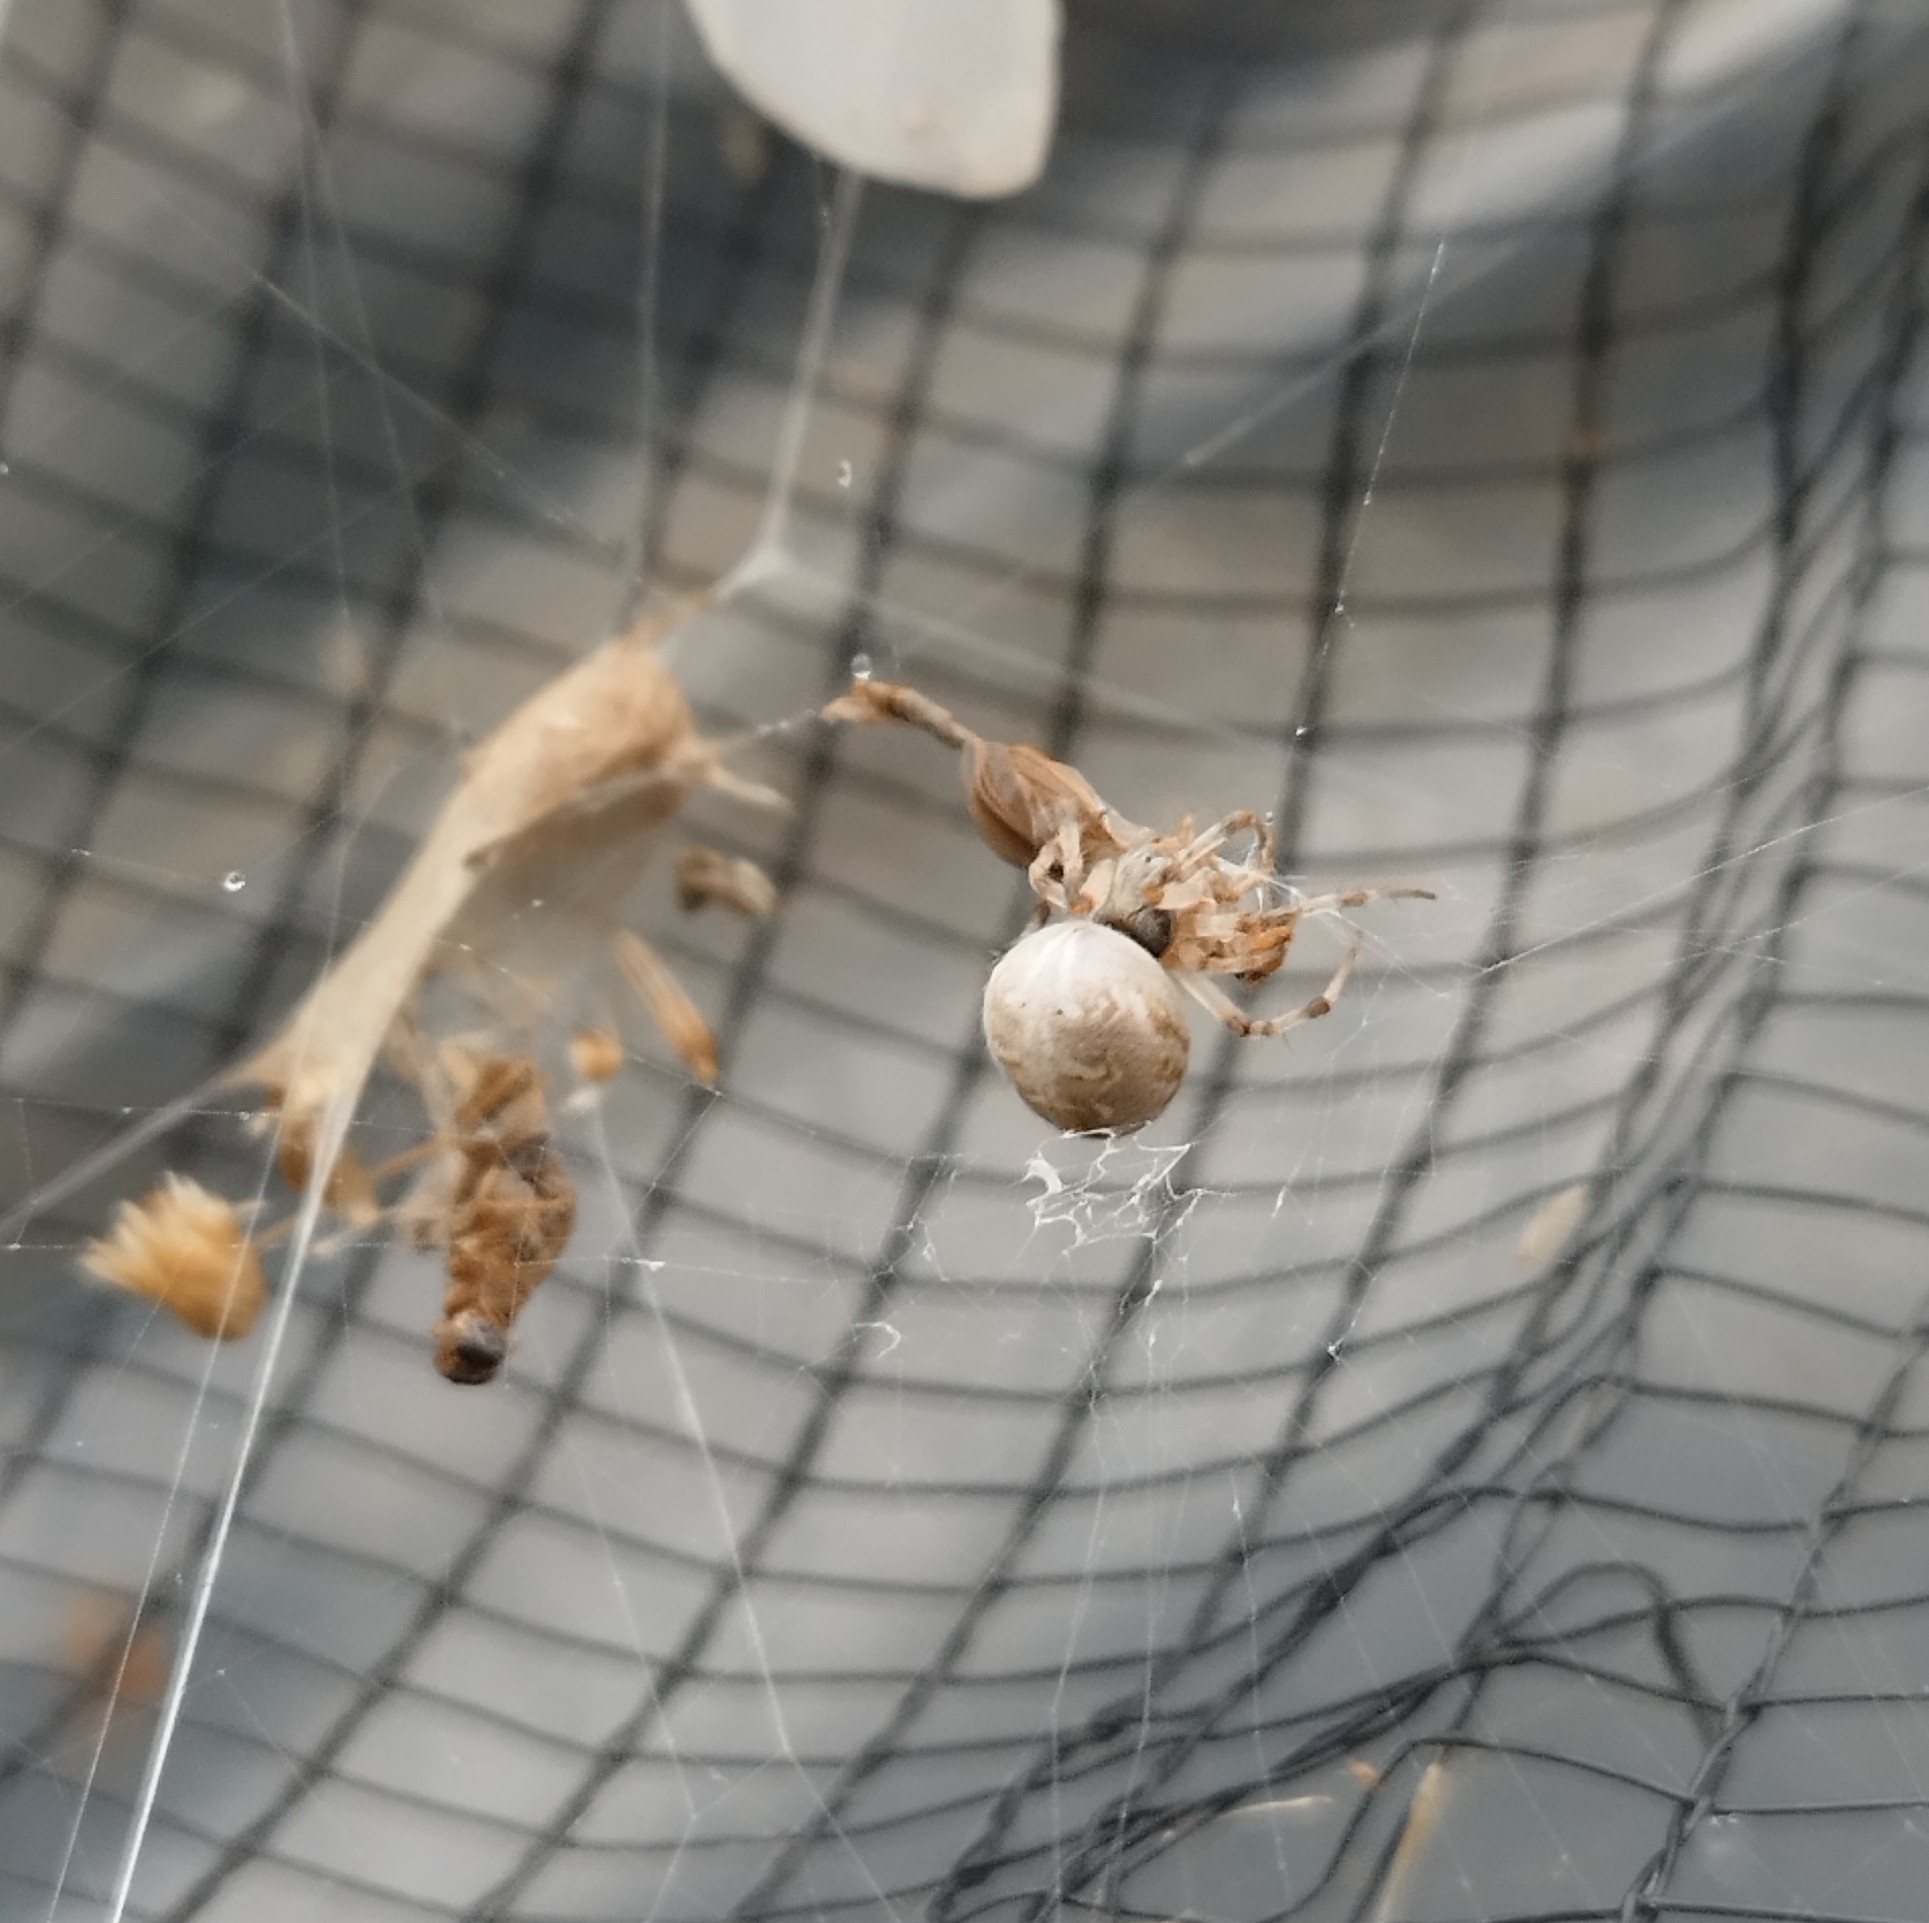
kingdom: Animalia
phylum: Arthropoda
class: Arachnida
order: Araneae
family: Araneidae
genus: Metepeira
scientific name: Metepeira
